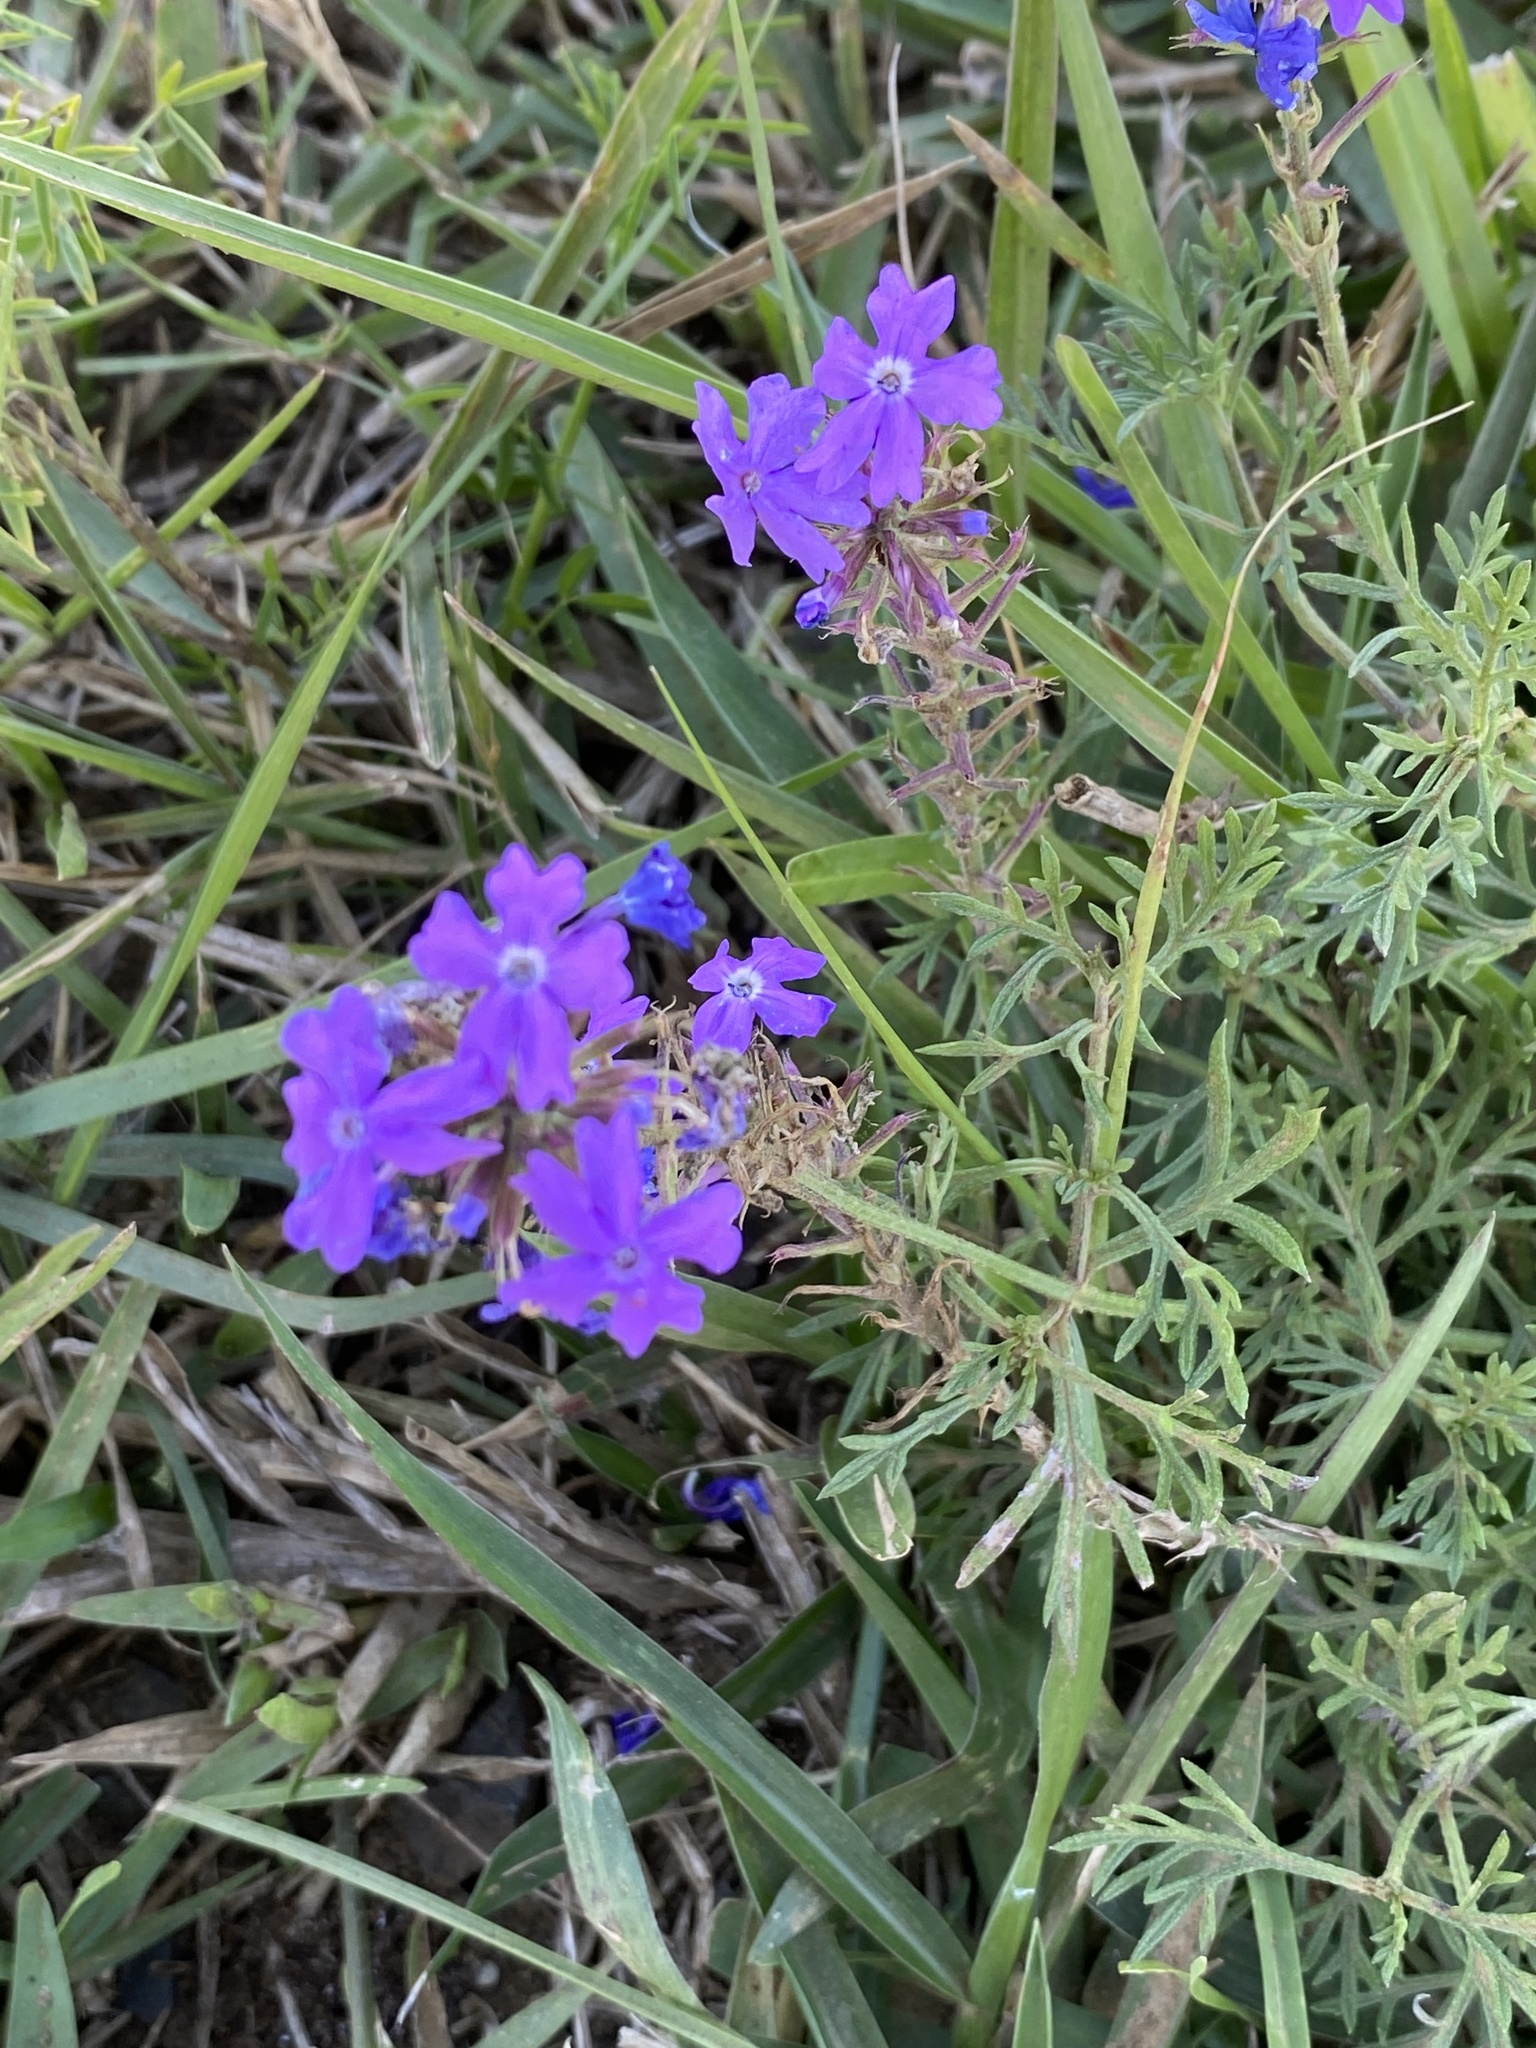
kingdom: Plantae
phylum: Tracheophyta
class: Magnoliopsida
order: Lamiales
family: Verbenaceae
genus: Verbena
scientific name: Verbena aristigera
